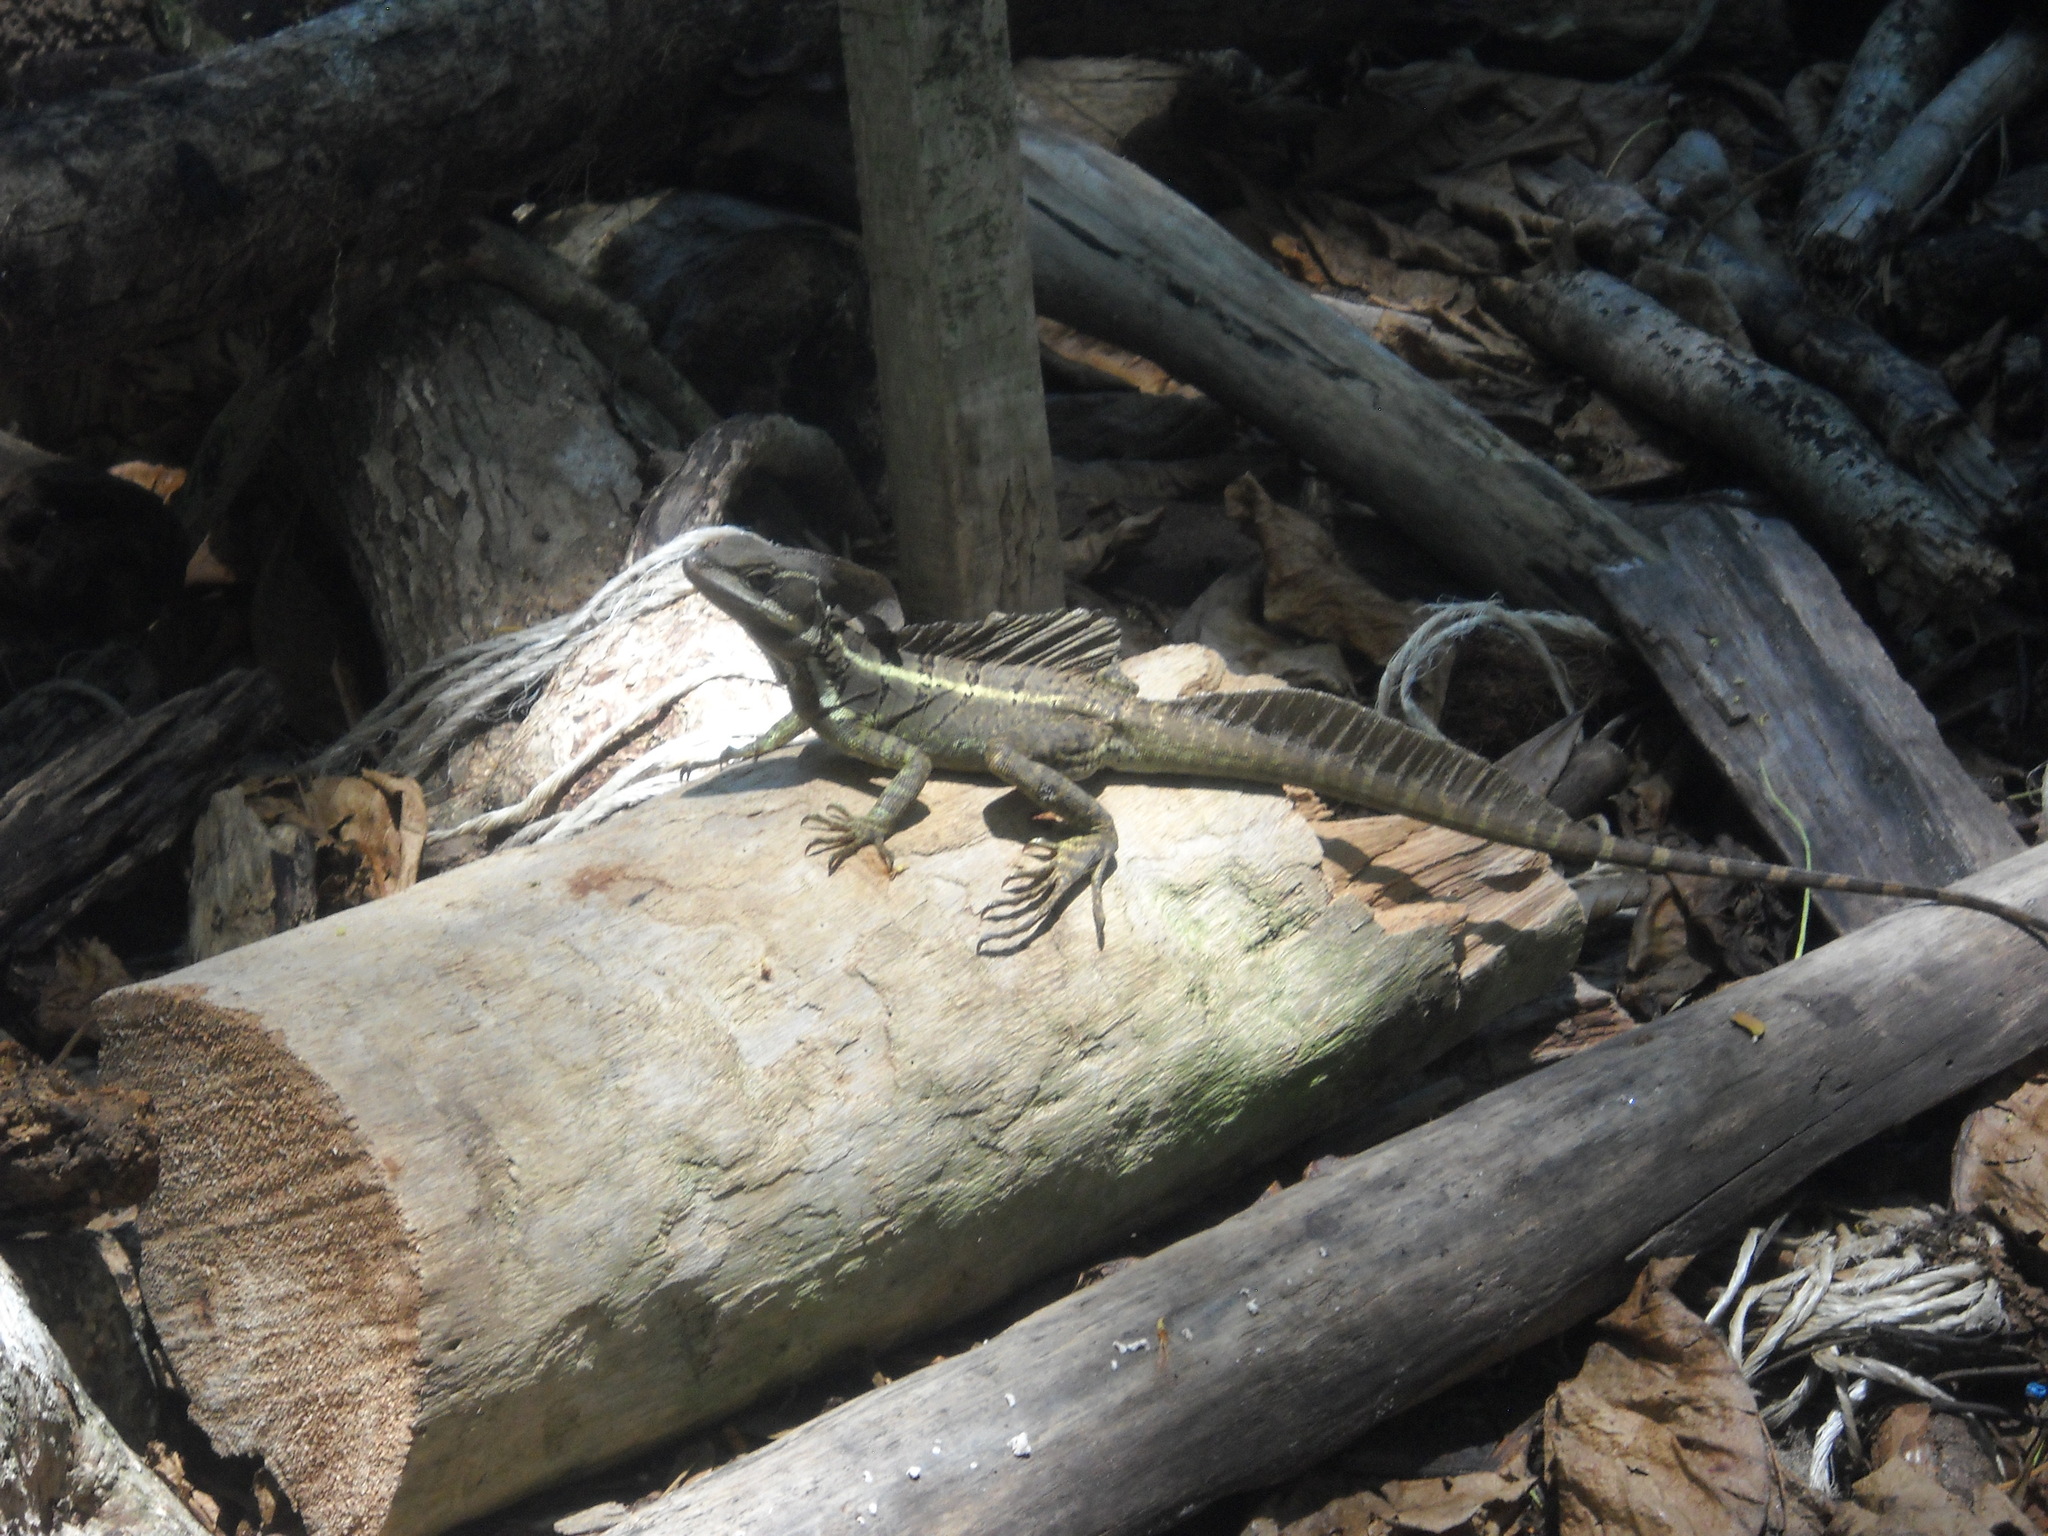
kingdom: Animalia
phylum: Chordata
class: Squamata
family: Corytophanidae
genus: Basiliscus
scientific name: Basiliscus basiliscus
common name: Common basilisk
